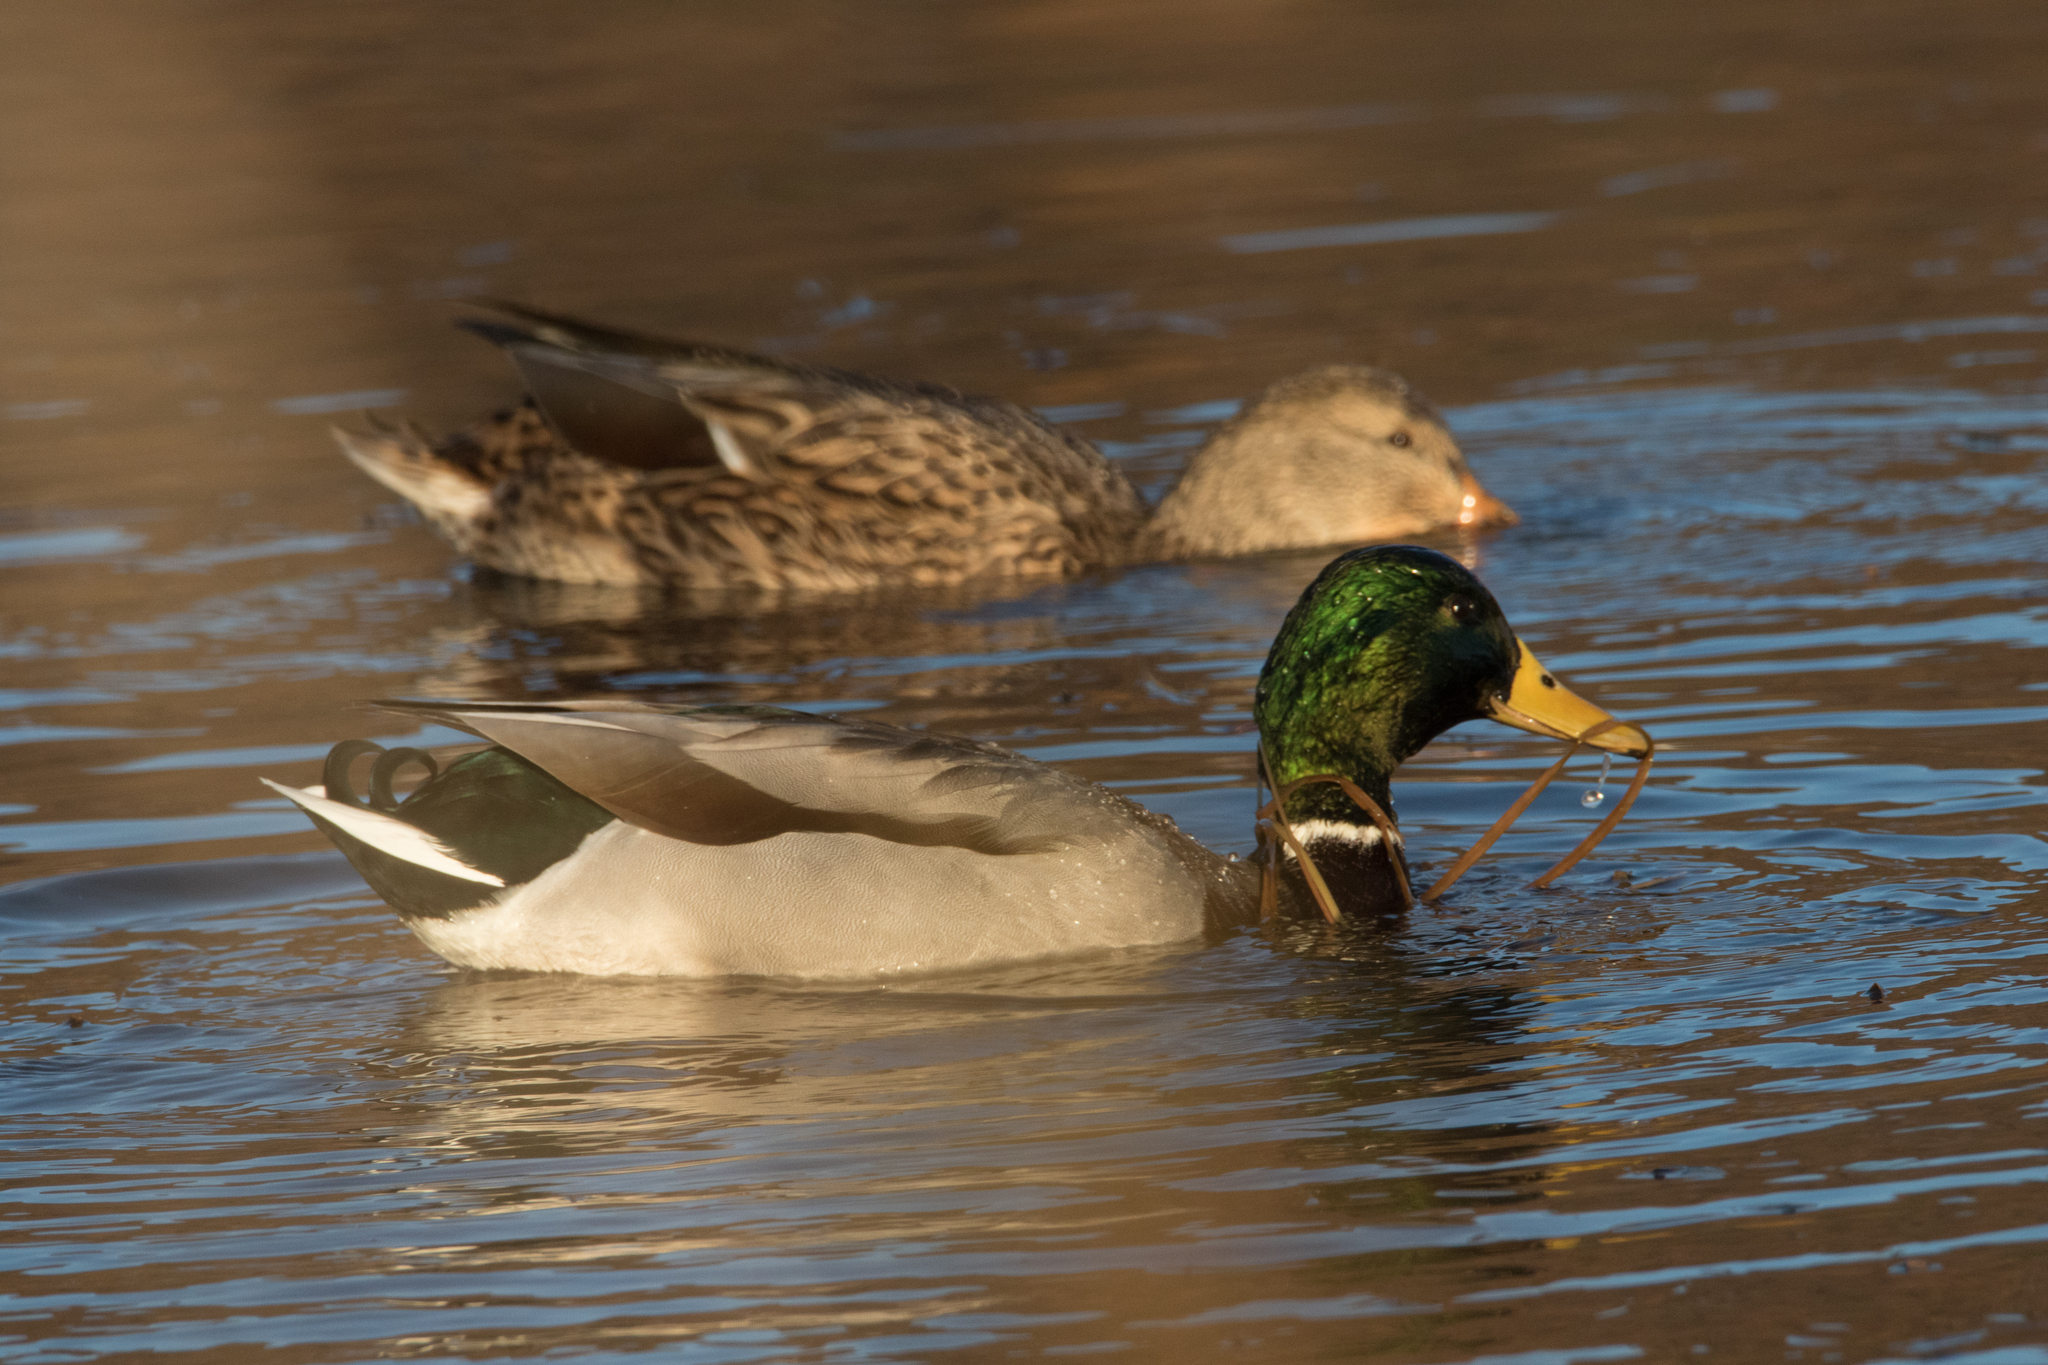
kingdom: Animalia
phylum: Chordata
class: Aves
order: Anseriformes
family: Anatidae
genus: Anas
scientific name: Anas platyrhynchos
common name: Mallard
